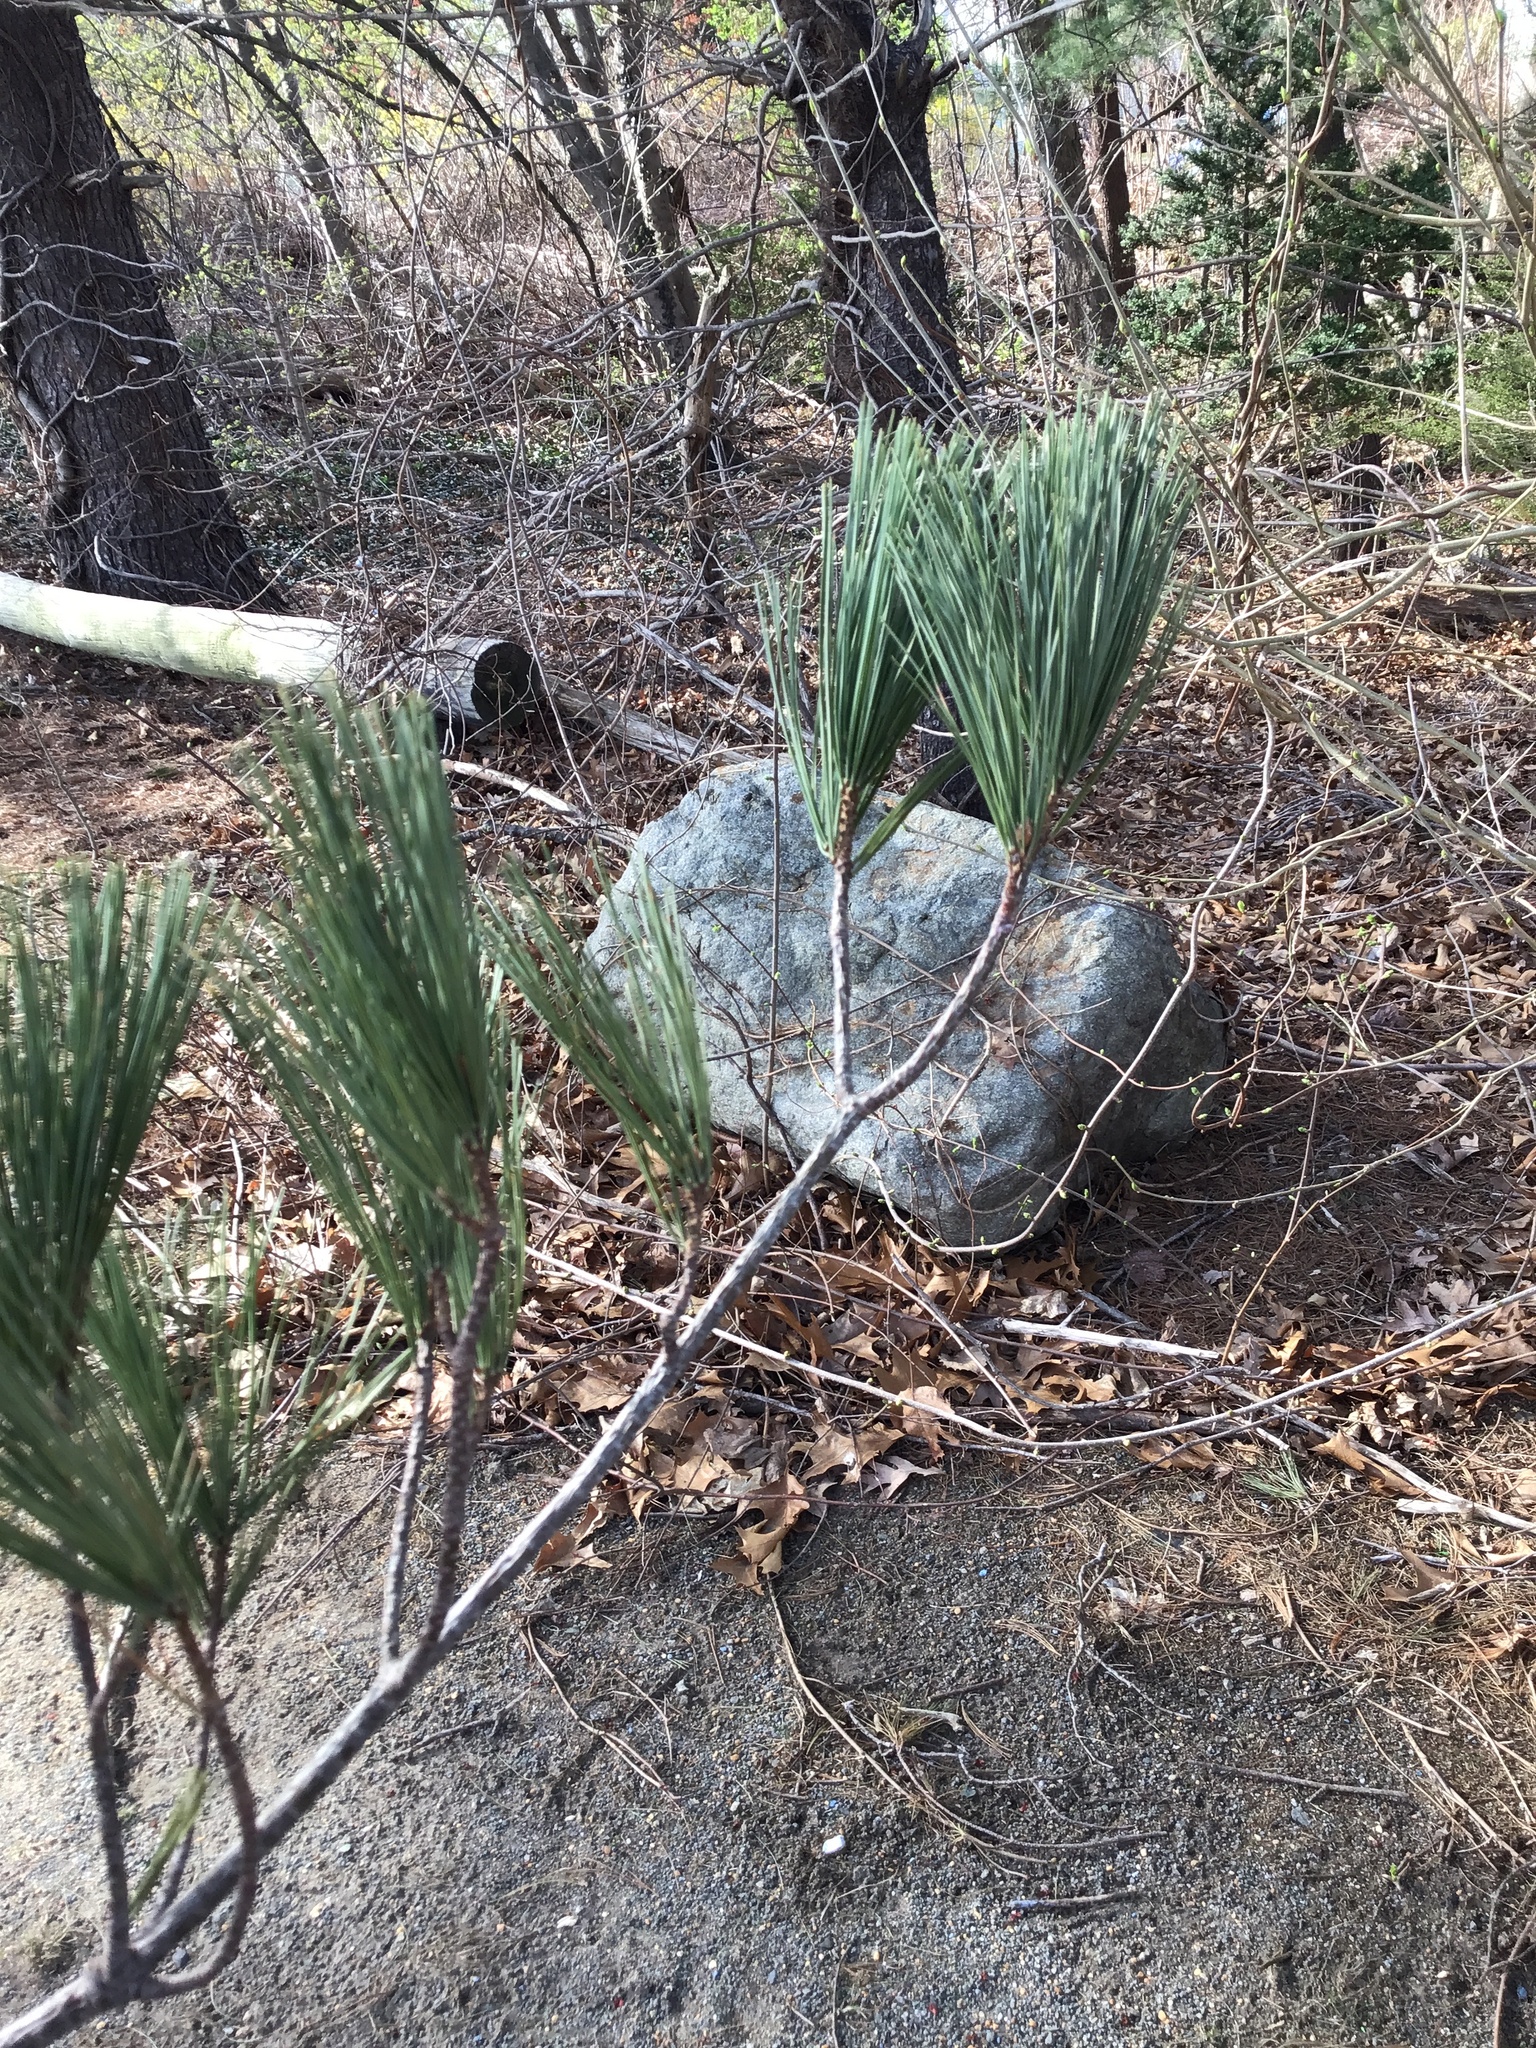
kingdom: Plantae
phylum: Tracheophyta
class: Pinopsida
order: Pinales
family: Pinaceae
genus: Pinus
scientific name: Pinus strobus
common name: Weymouth pine
